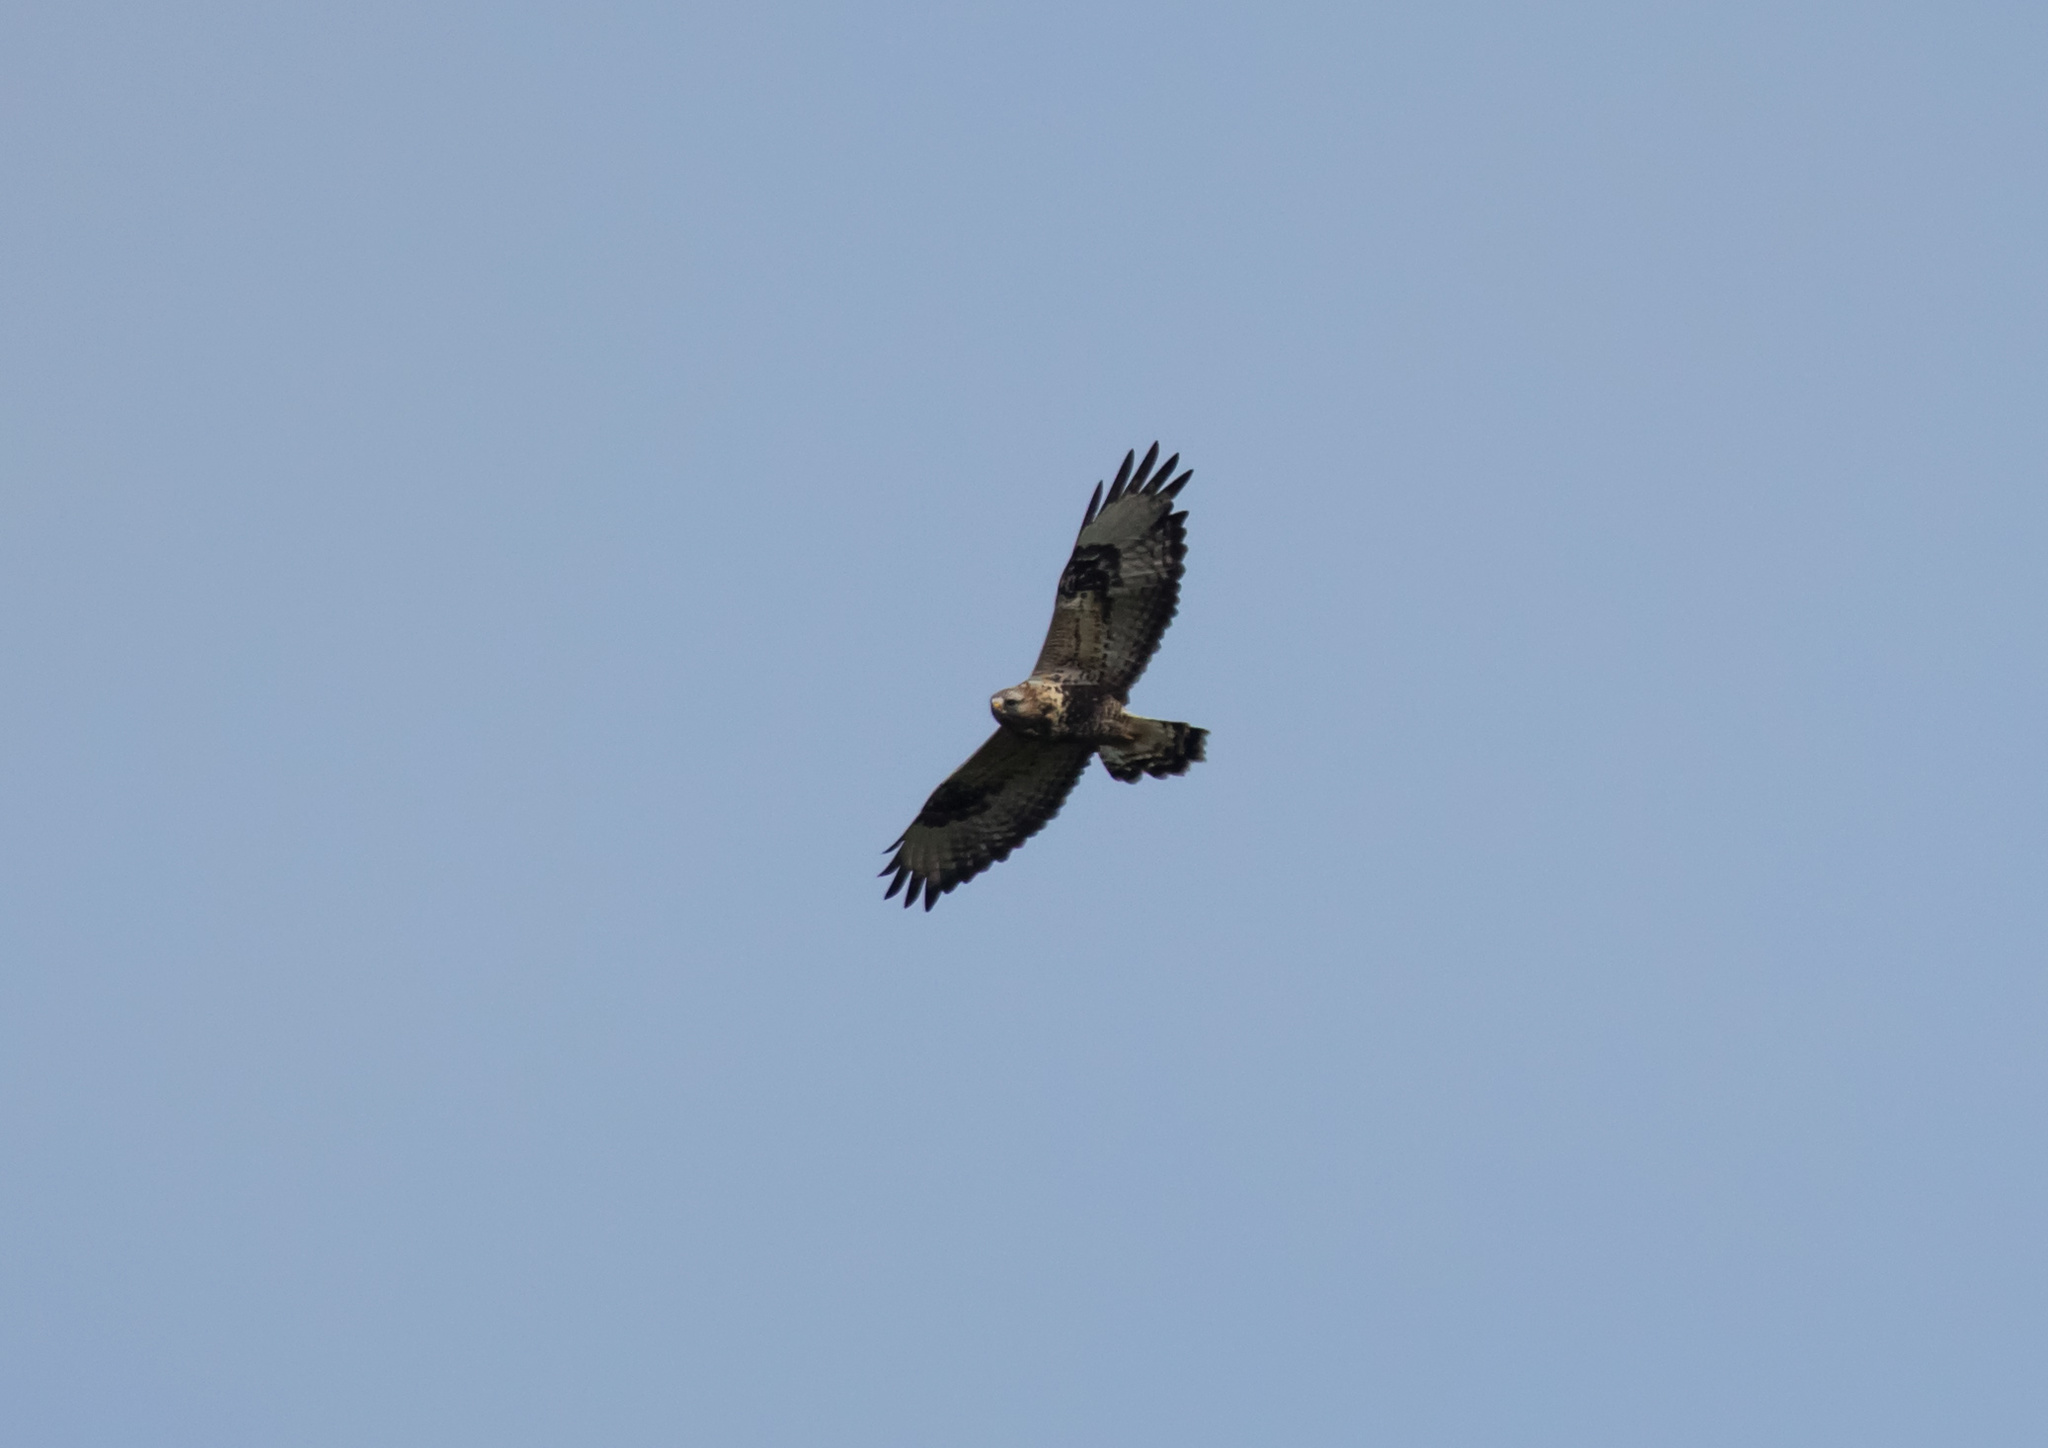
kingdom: Animalia
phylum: Chordata
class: Aves
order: Accipitriformes
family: Accipitridae
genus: Buteo
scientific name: Buteo lagopus
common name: Rough-legged buzzard
